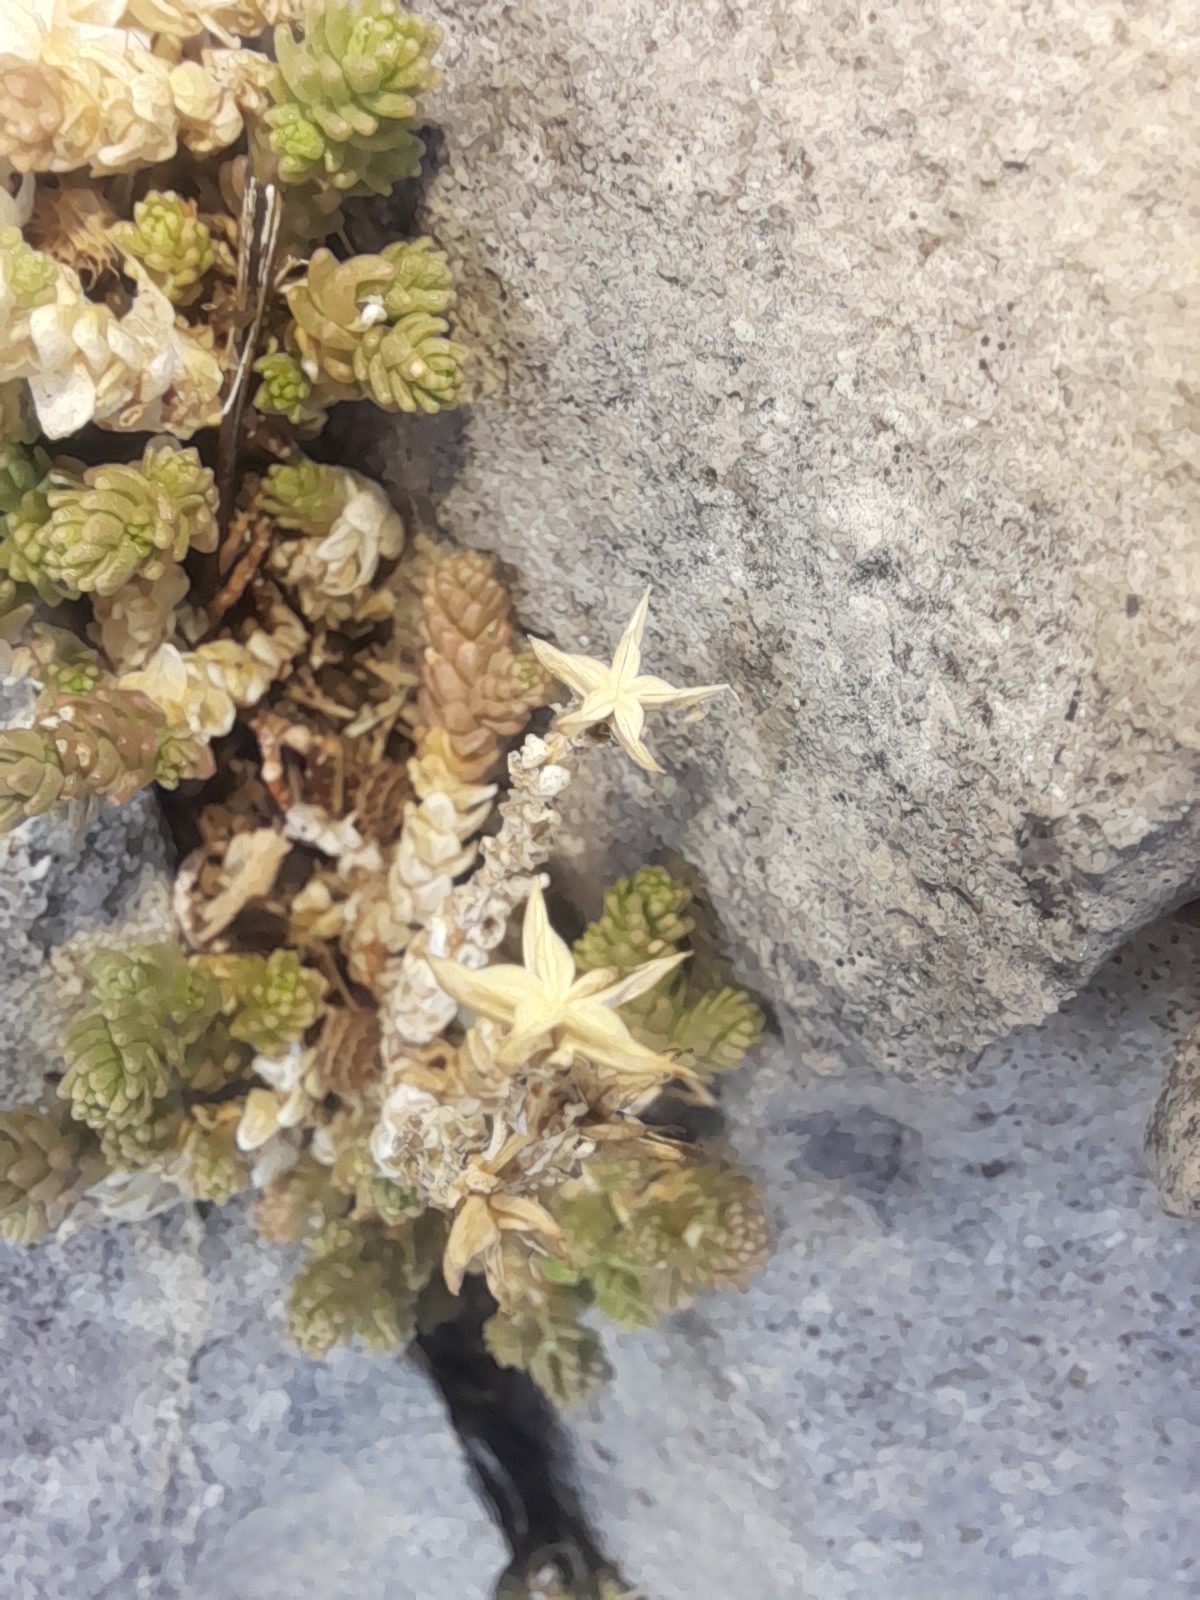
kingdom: Plantae
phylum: Tracheophyta
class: Magnoliopsida
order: Saxifragales
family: Crassulaceae
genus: Sedum
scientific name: Sedum acre
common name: Biting stonecrop
